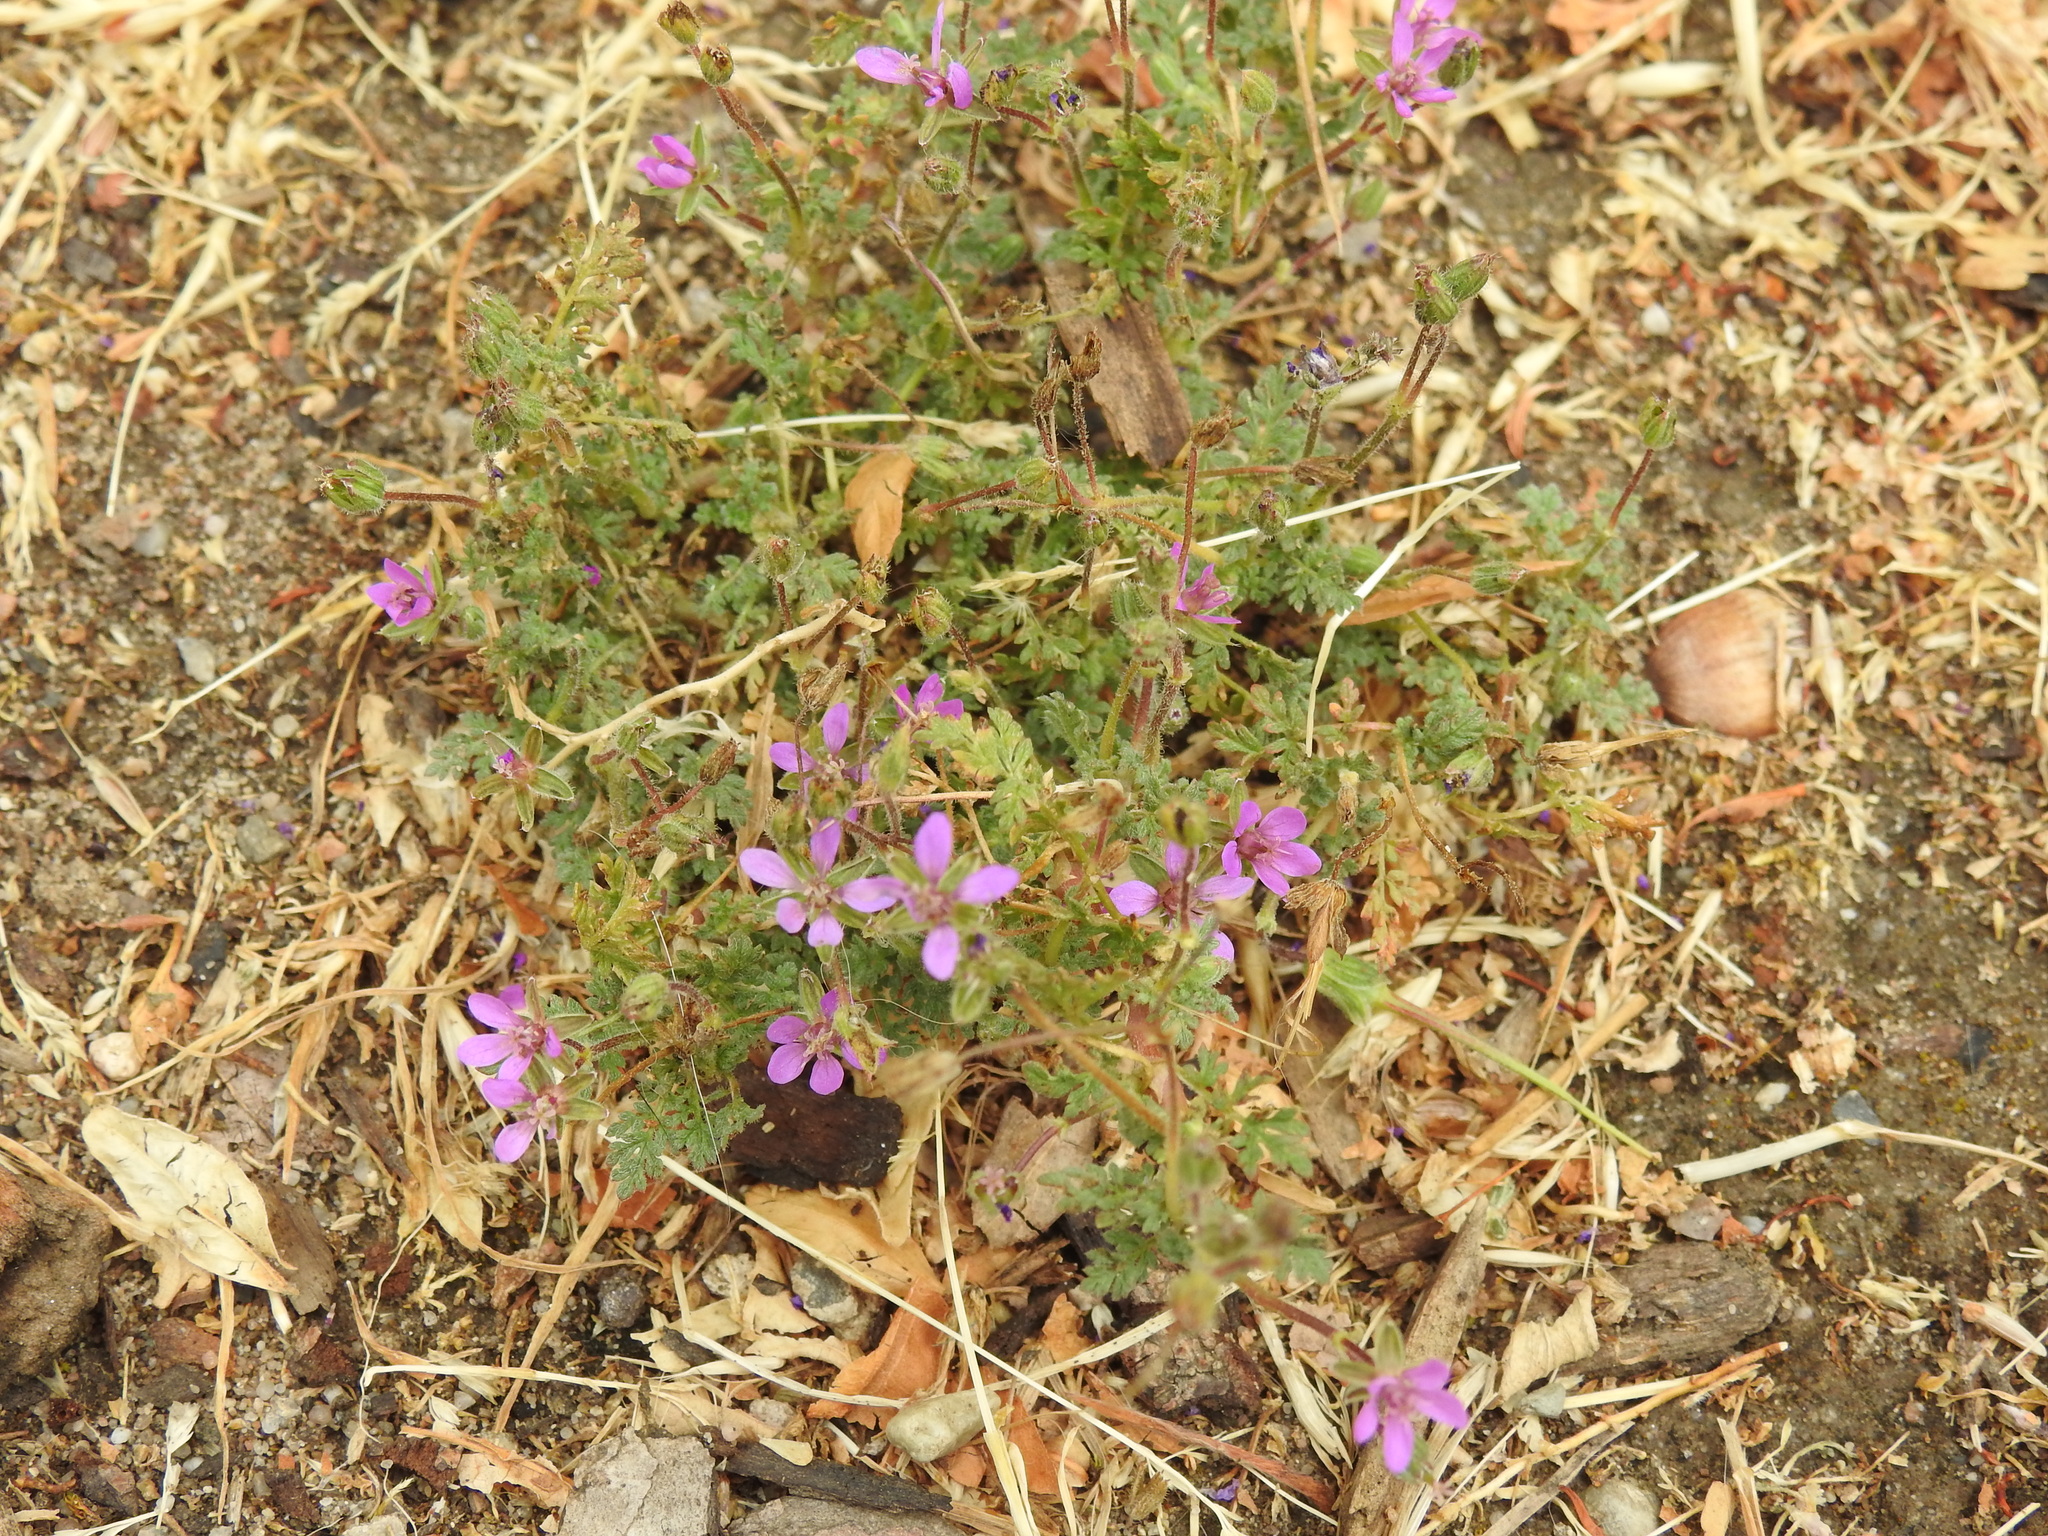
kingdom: Plantae
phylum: Tracheophyta
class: Magnoliopsida
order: Geraniales
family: Geraniaceae
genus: Erodium
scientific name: Erodium cicutarium
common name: Common stork's-bill
